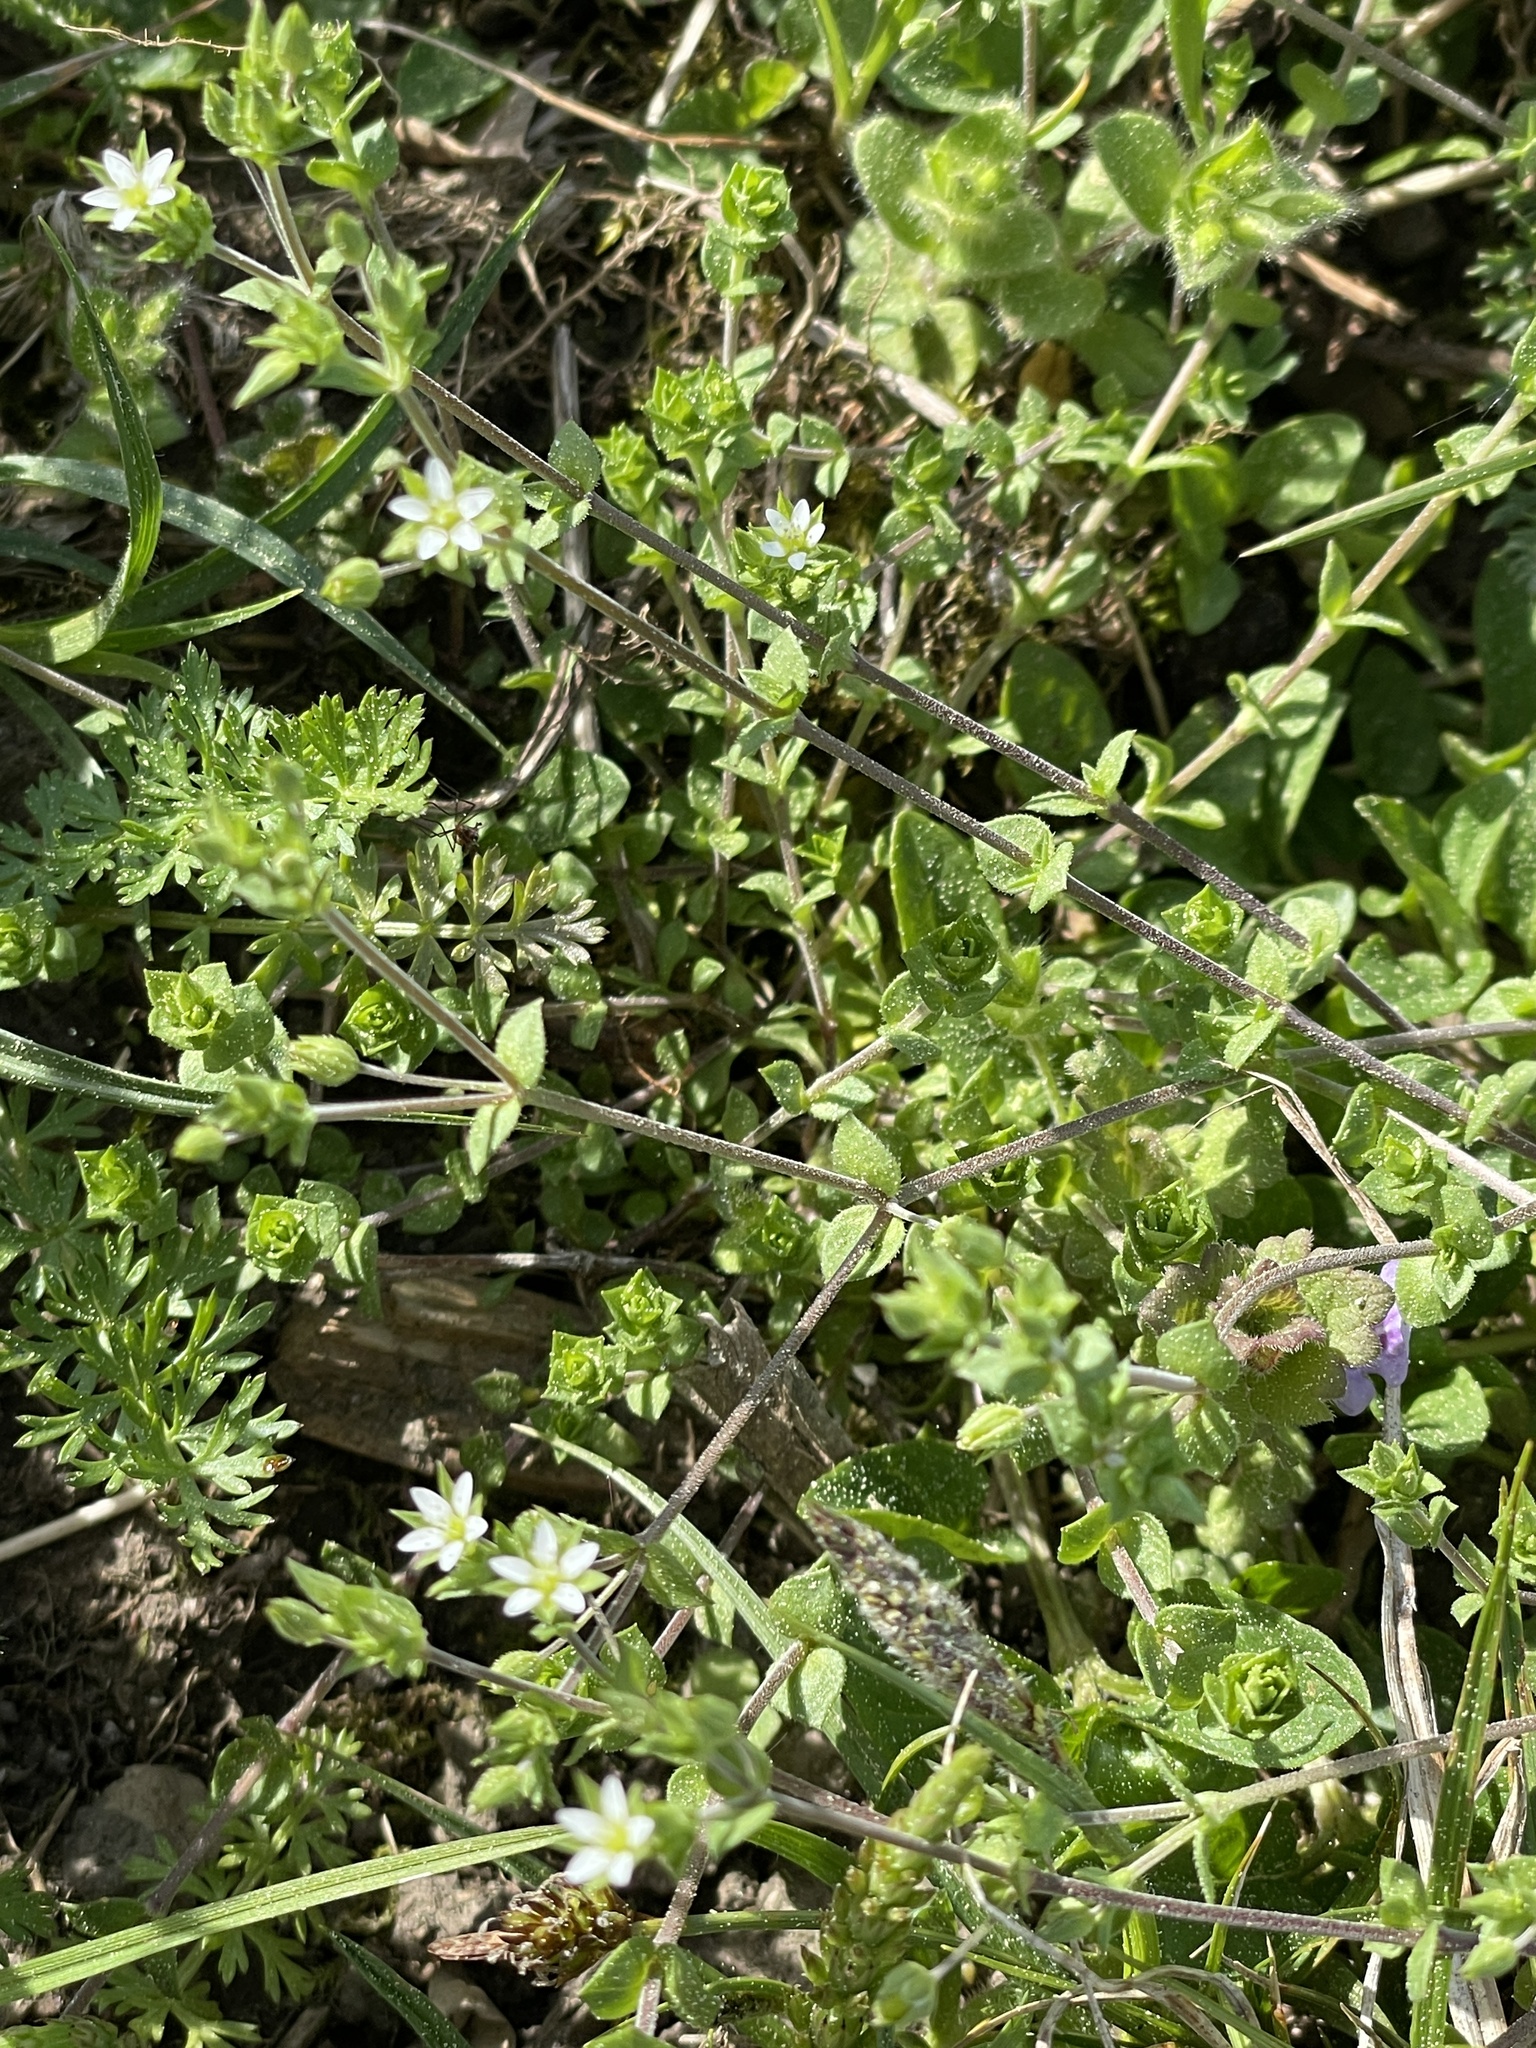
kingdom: Plantae
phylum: Tracheophyta
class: Magnoliopsida
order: Caryophyllales
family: Caryophyllaceae
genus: Arenaria
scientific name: Arenaria serpyllifolia
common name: Thyme-leaved sandwort
